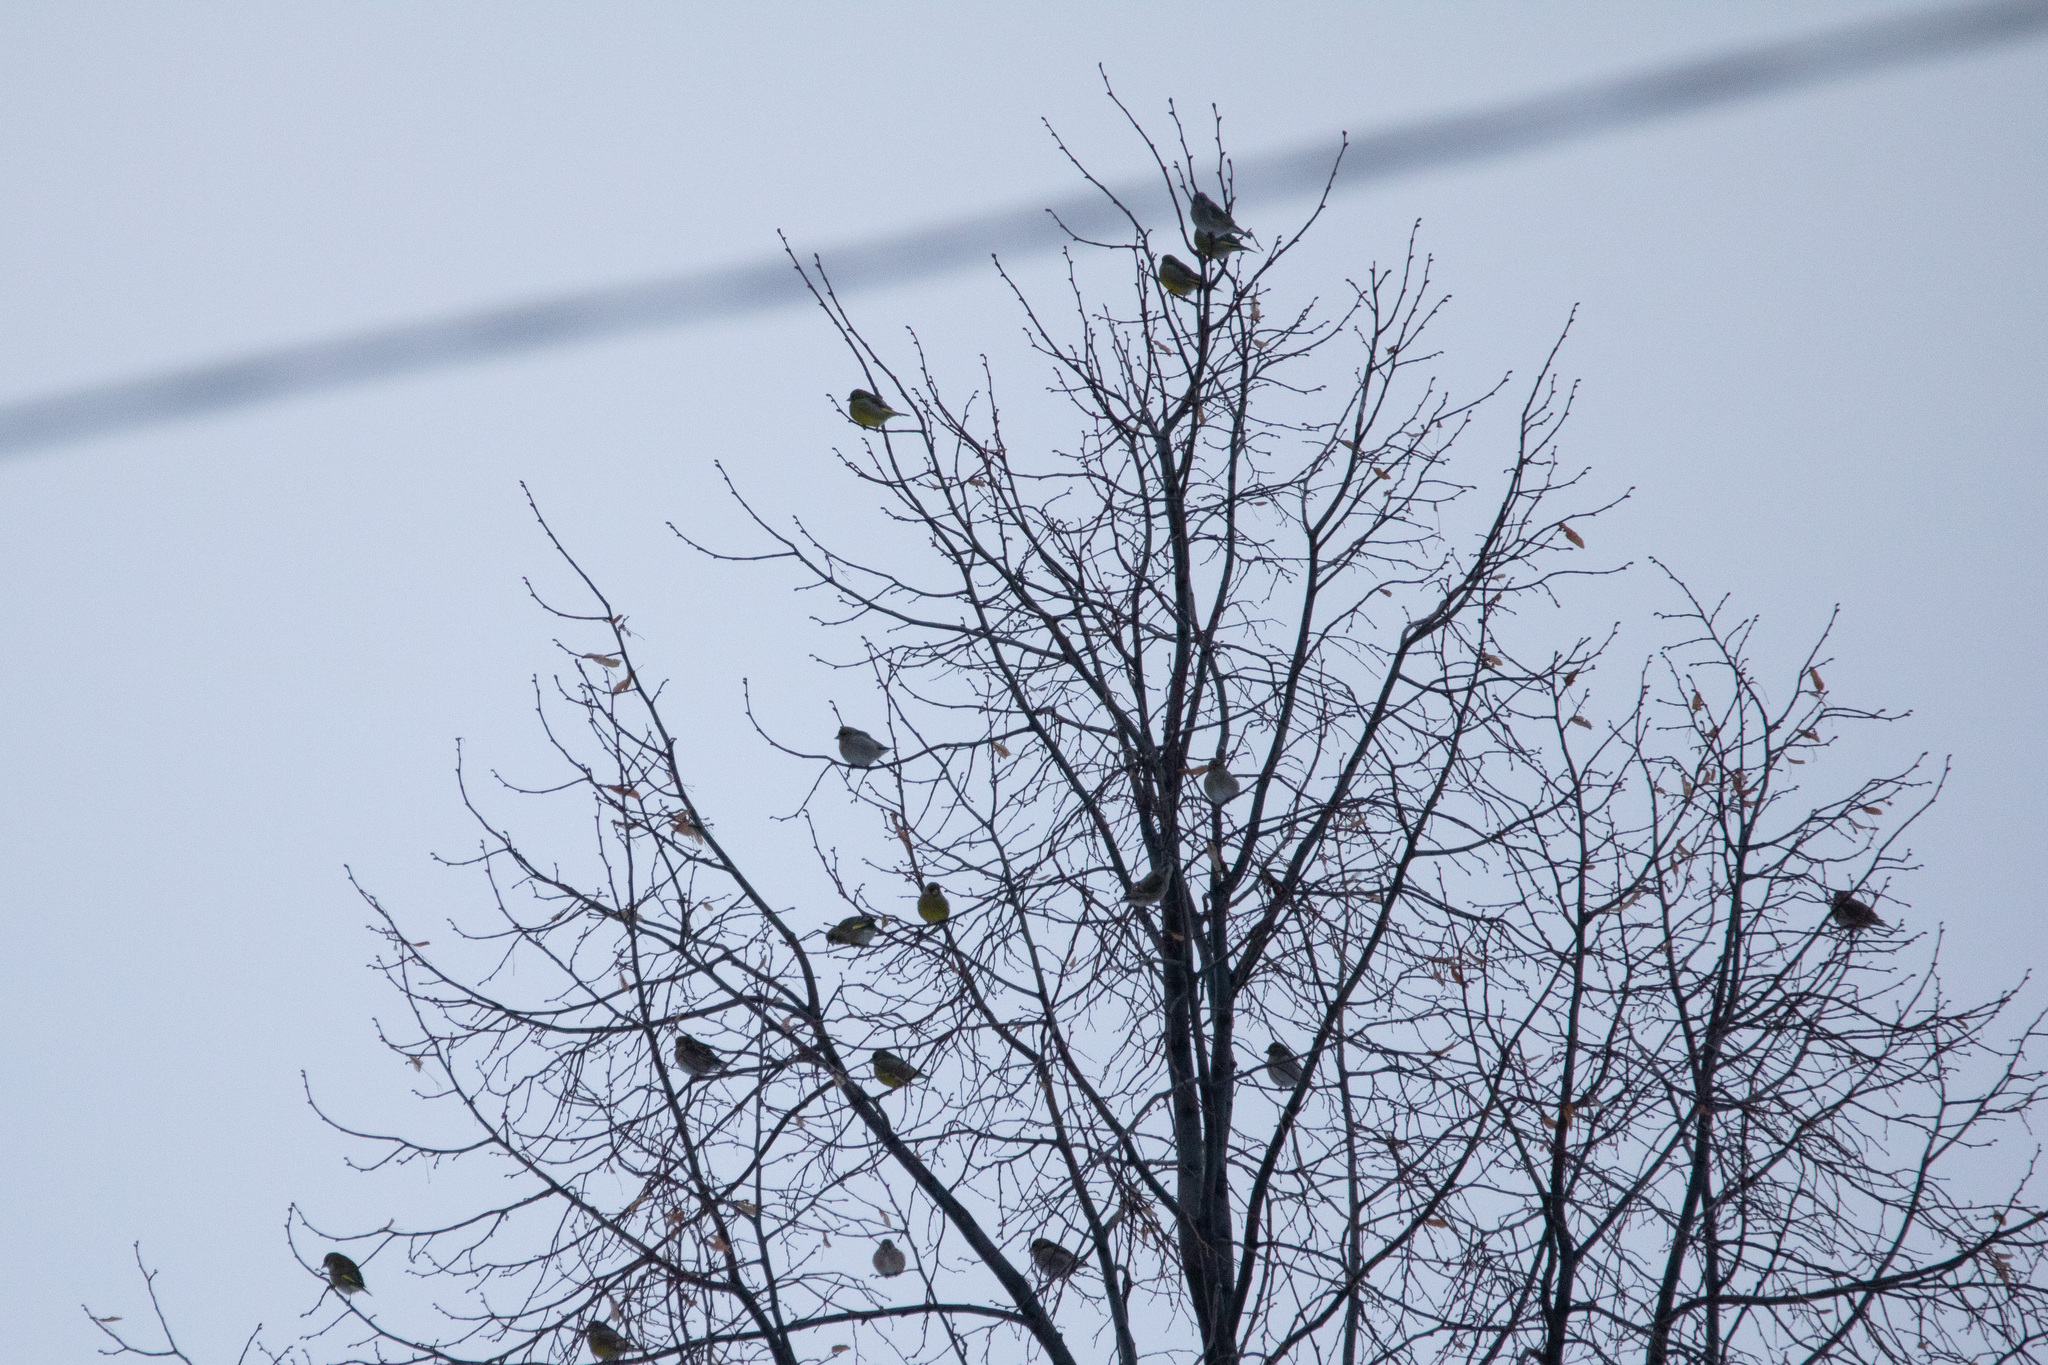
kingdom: Plantae
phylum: Tracheophyta
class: Liliopsida
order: Poales
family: Poaceae
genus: Chloris
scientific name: Chloris chloris
